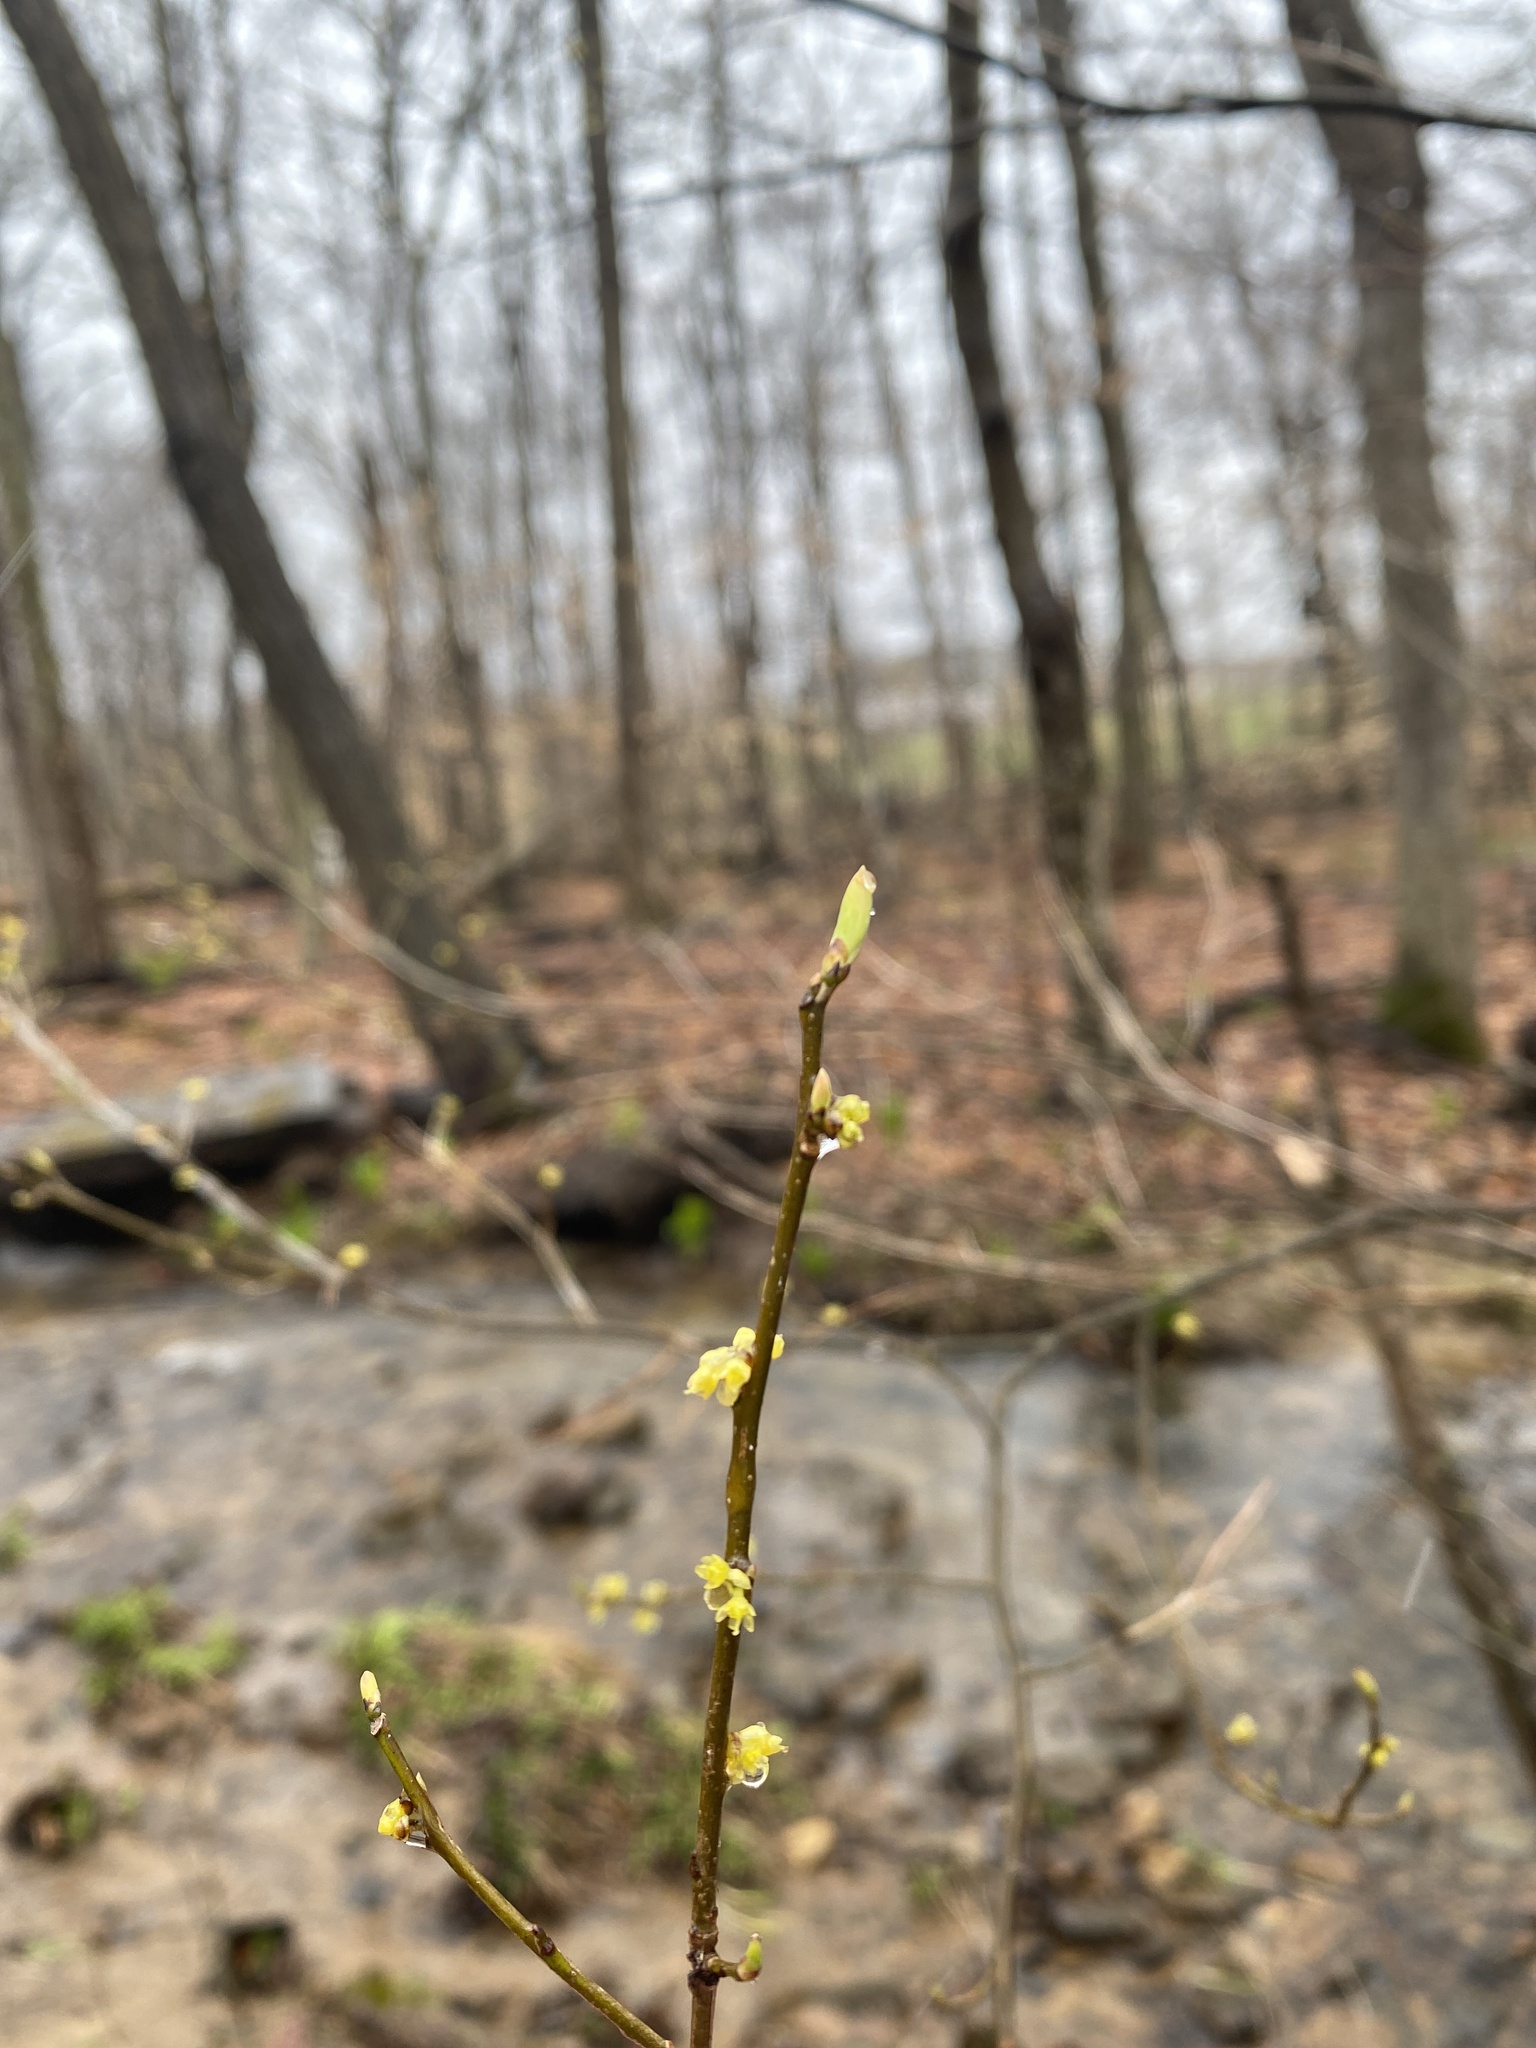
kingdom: Plantae
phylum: Tracheophyta
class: Magnoliopsida
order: Laurales
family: Lauraceae
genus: Lindera
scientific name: Lindera benzoin
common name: Spicebush
